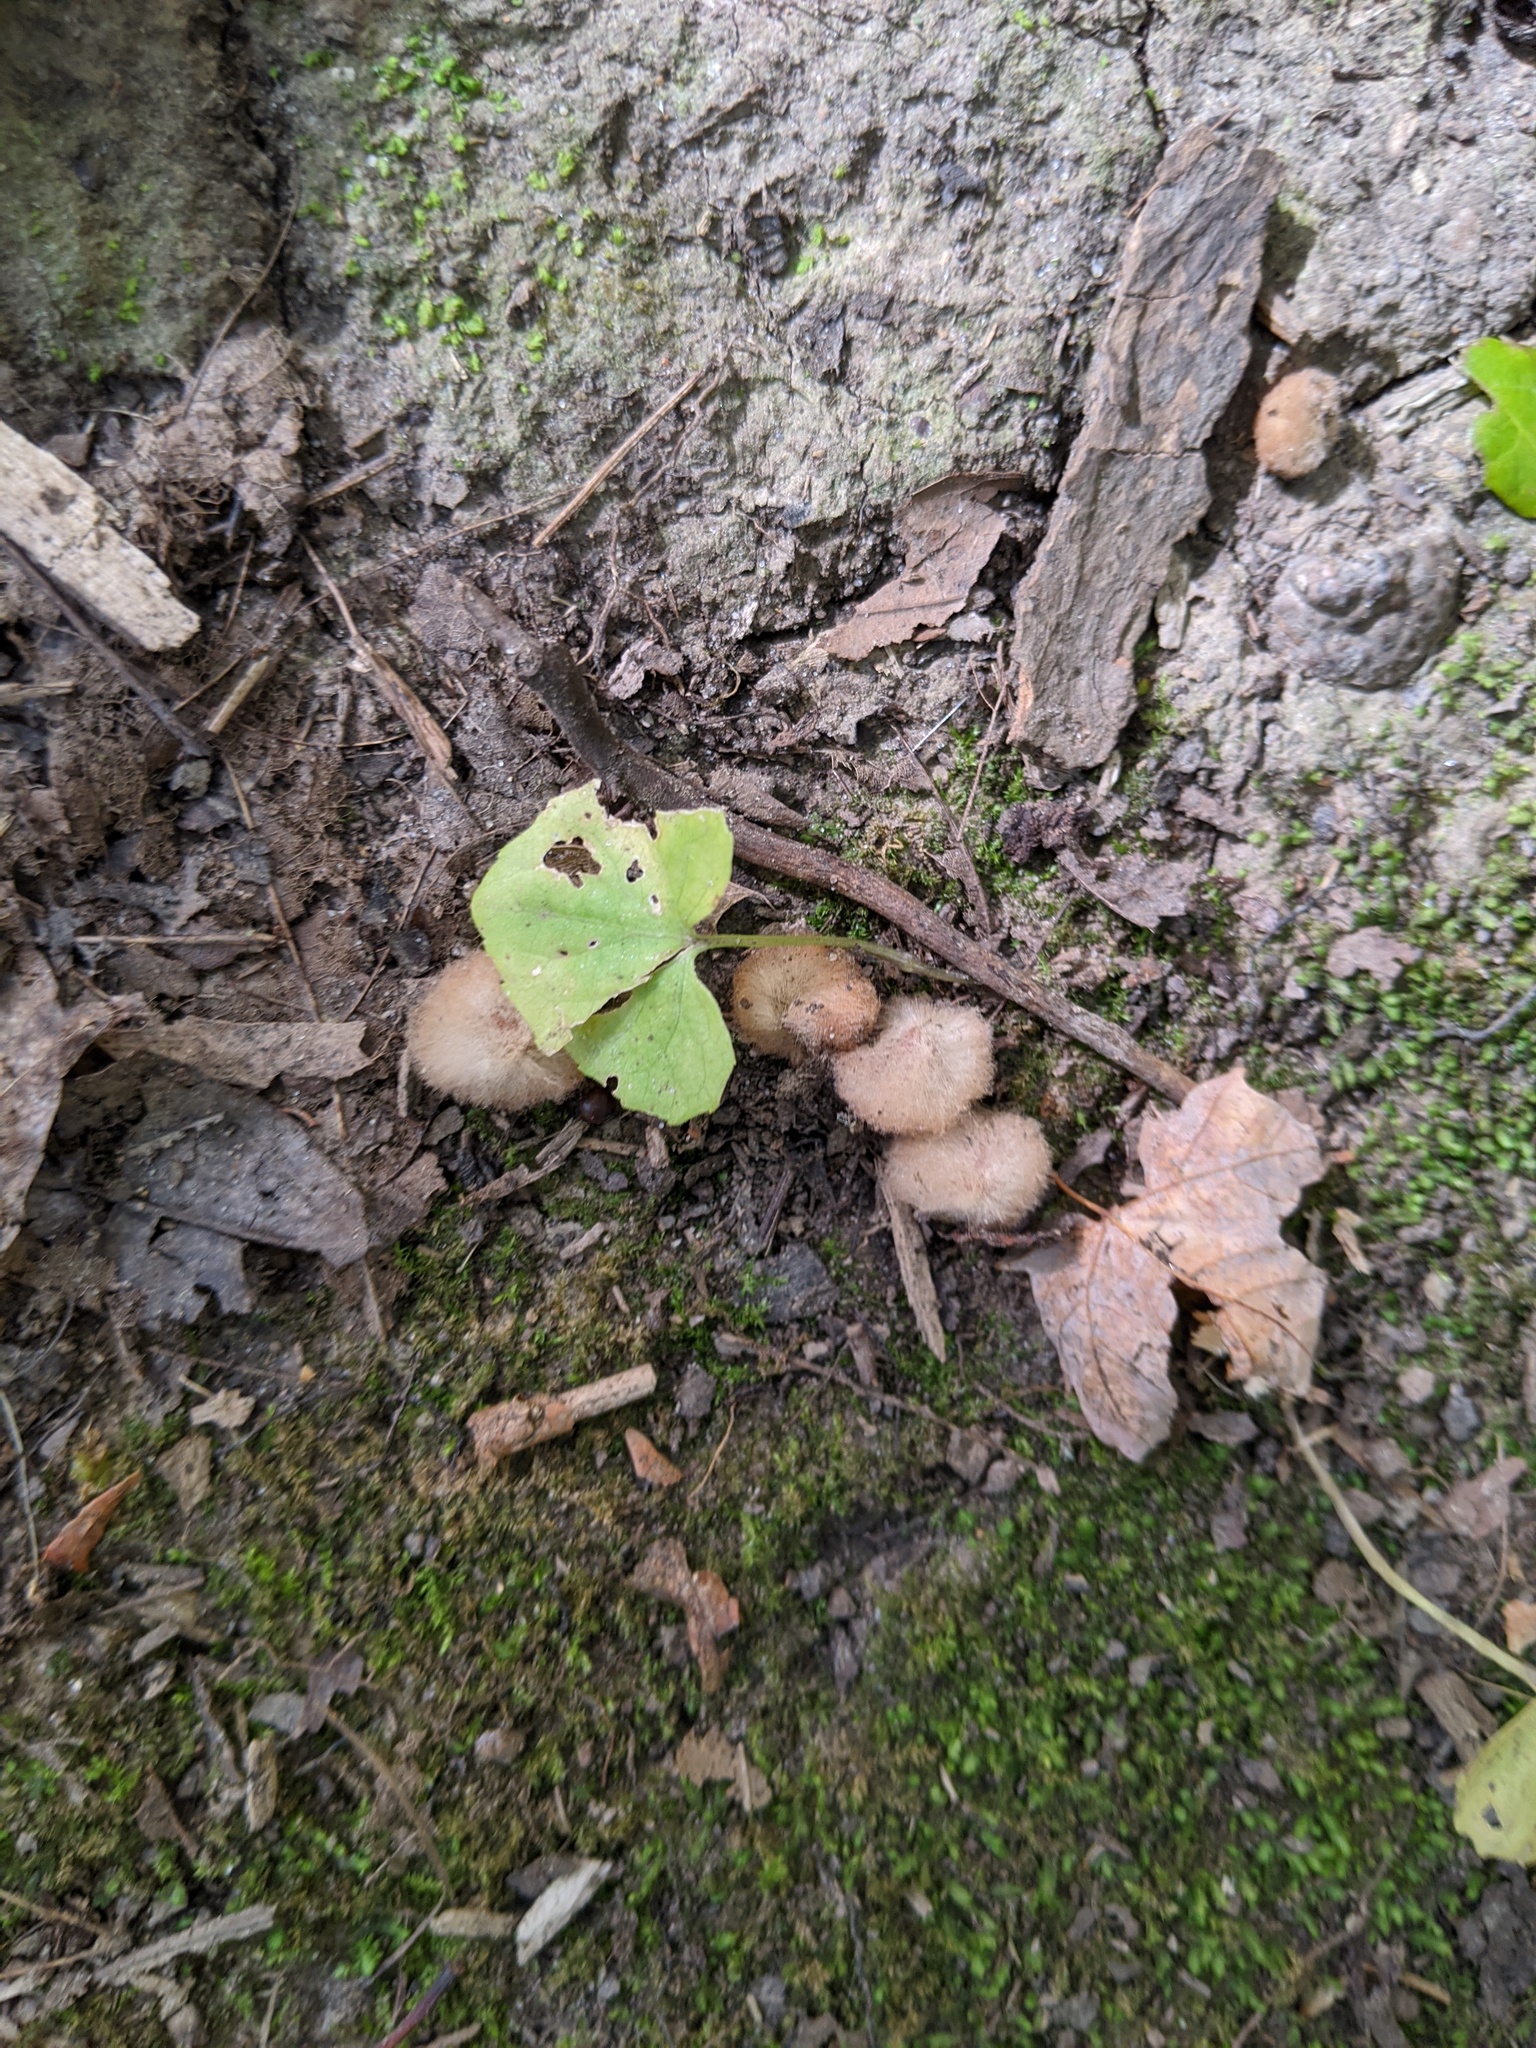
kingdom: Animalia
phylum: Arthropoda
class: Insecta
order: Hymenoptera
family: Cynipidae
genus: Callirhytis
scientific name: Callirhytis
